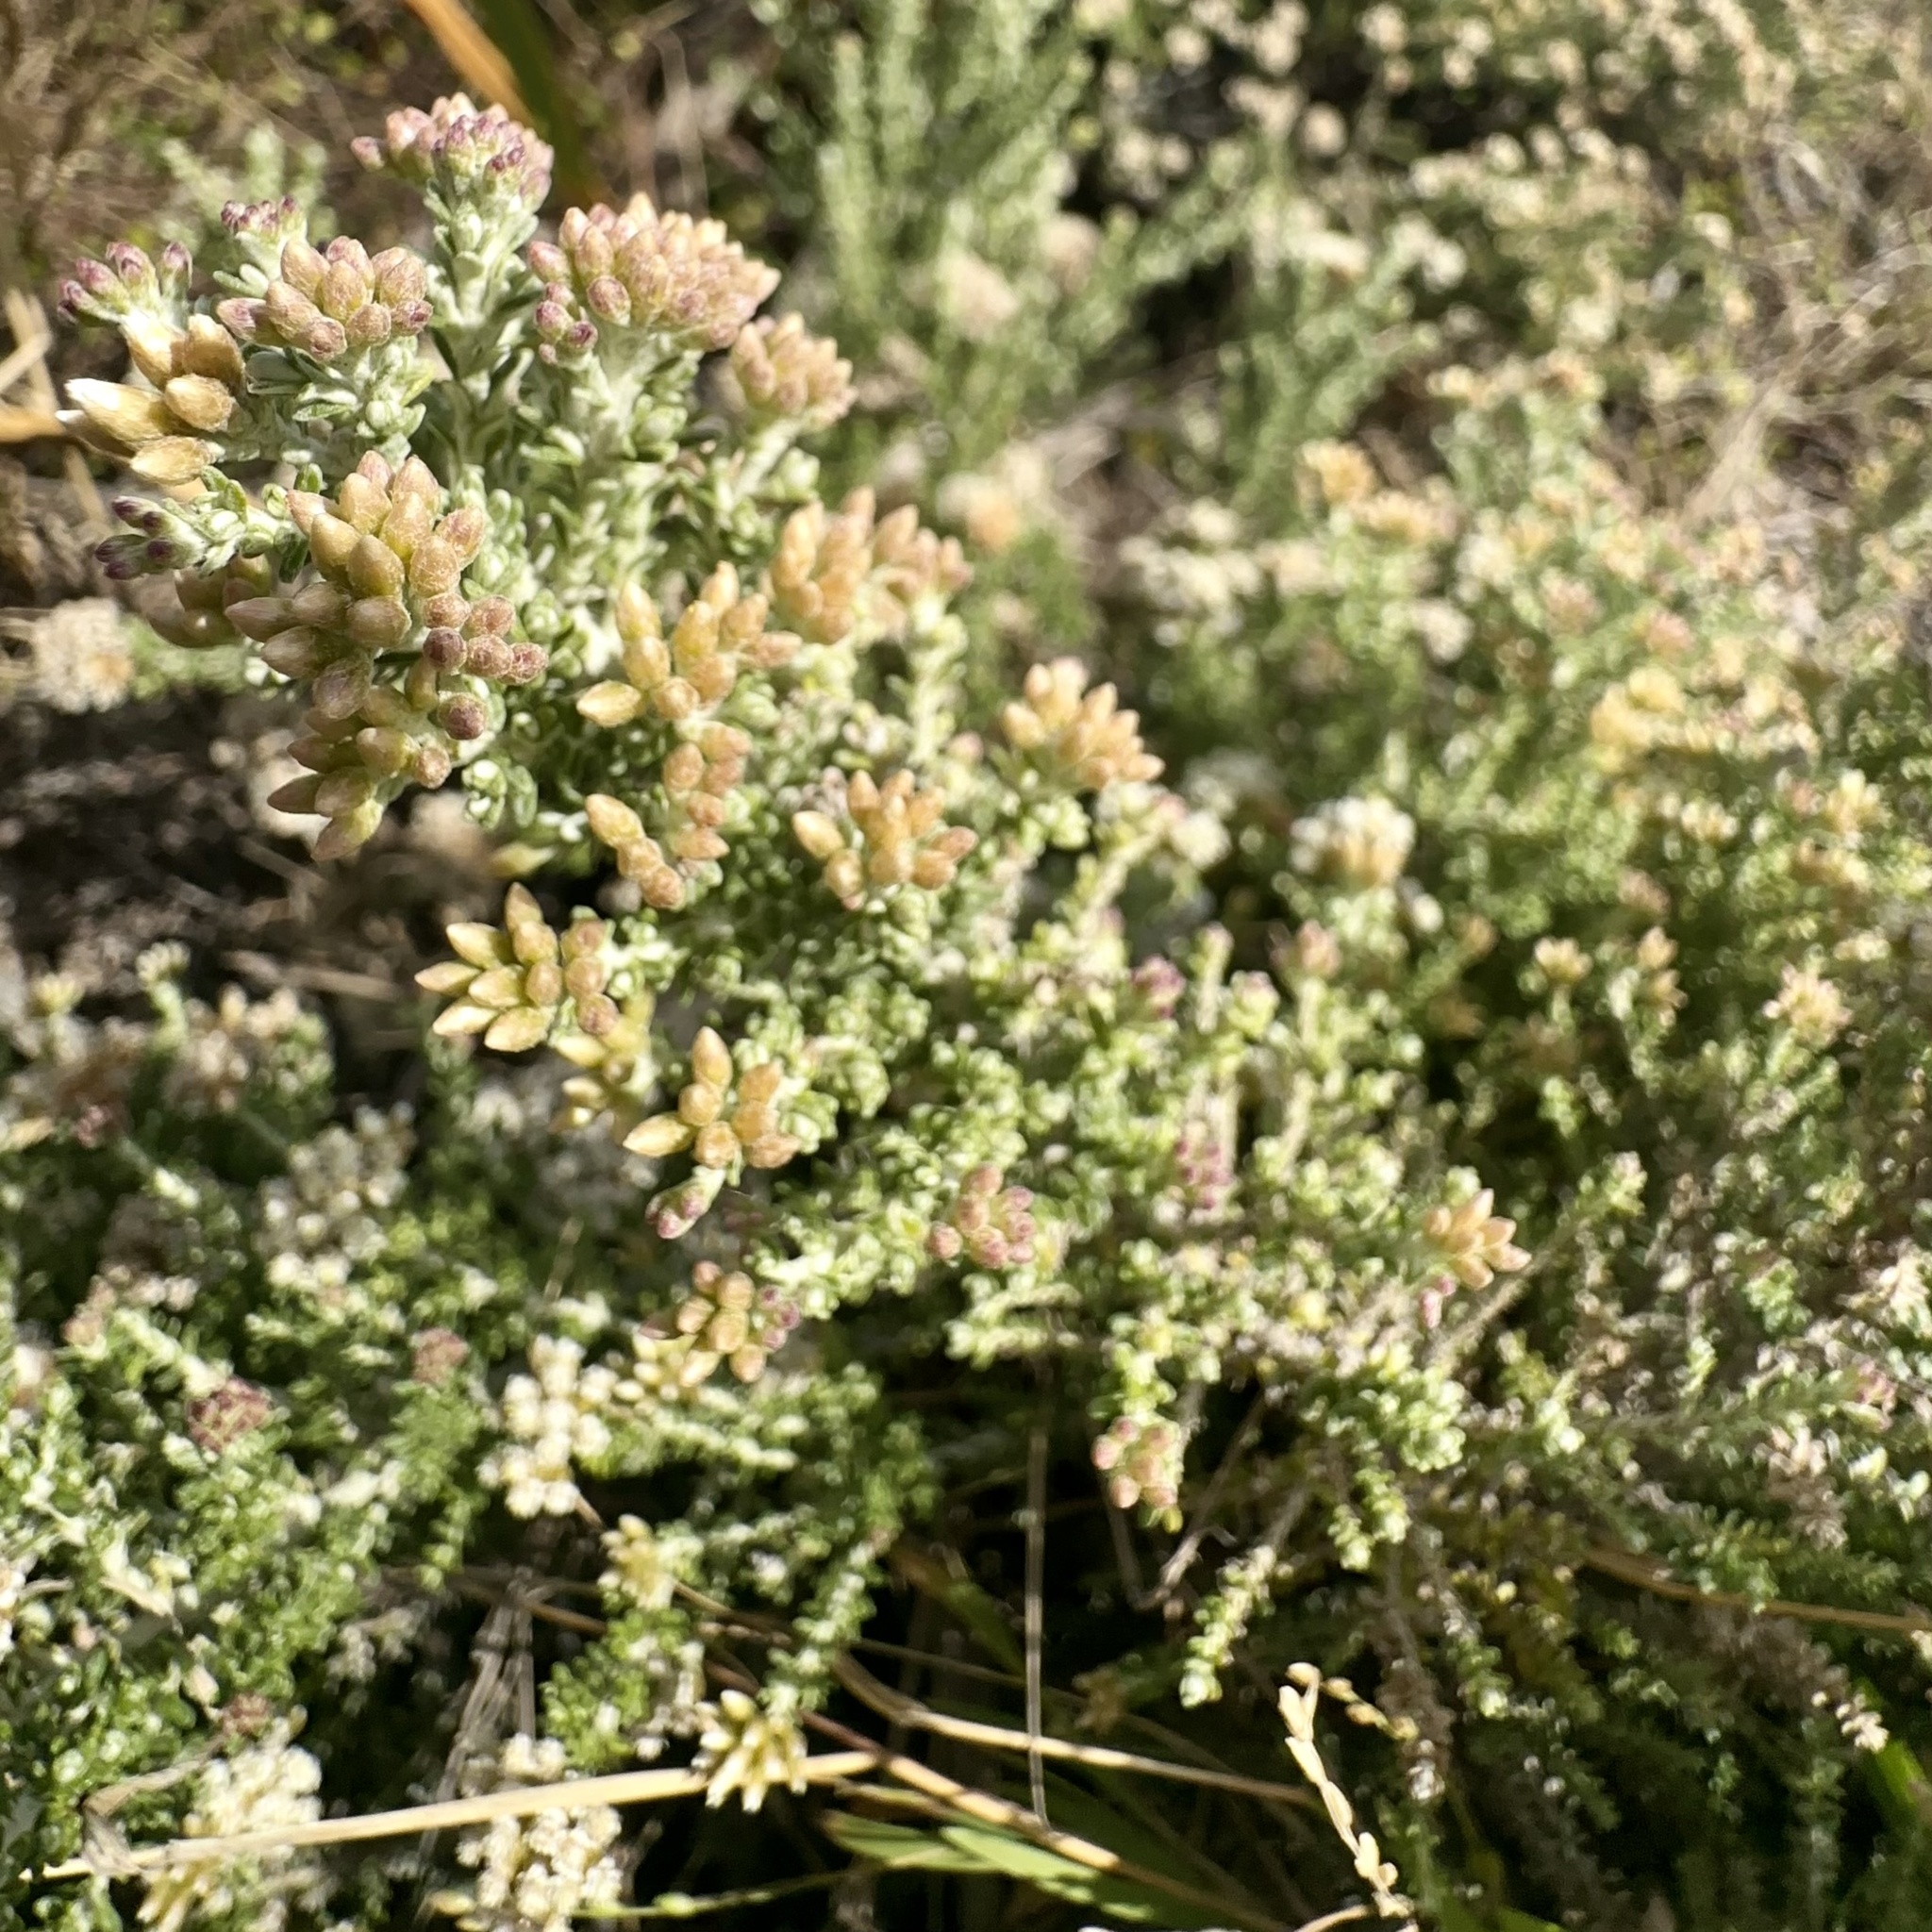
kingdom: Plantae
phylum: Tracheophyta
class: Magnoliopsida
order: Asterales
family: Asteraceae
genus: Ozothamnus
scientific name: Ozothamnus leptophyllus
